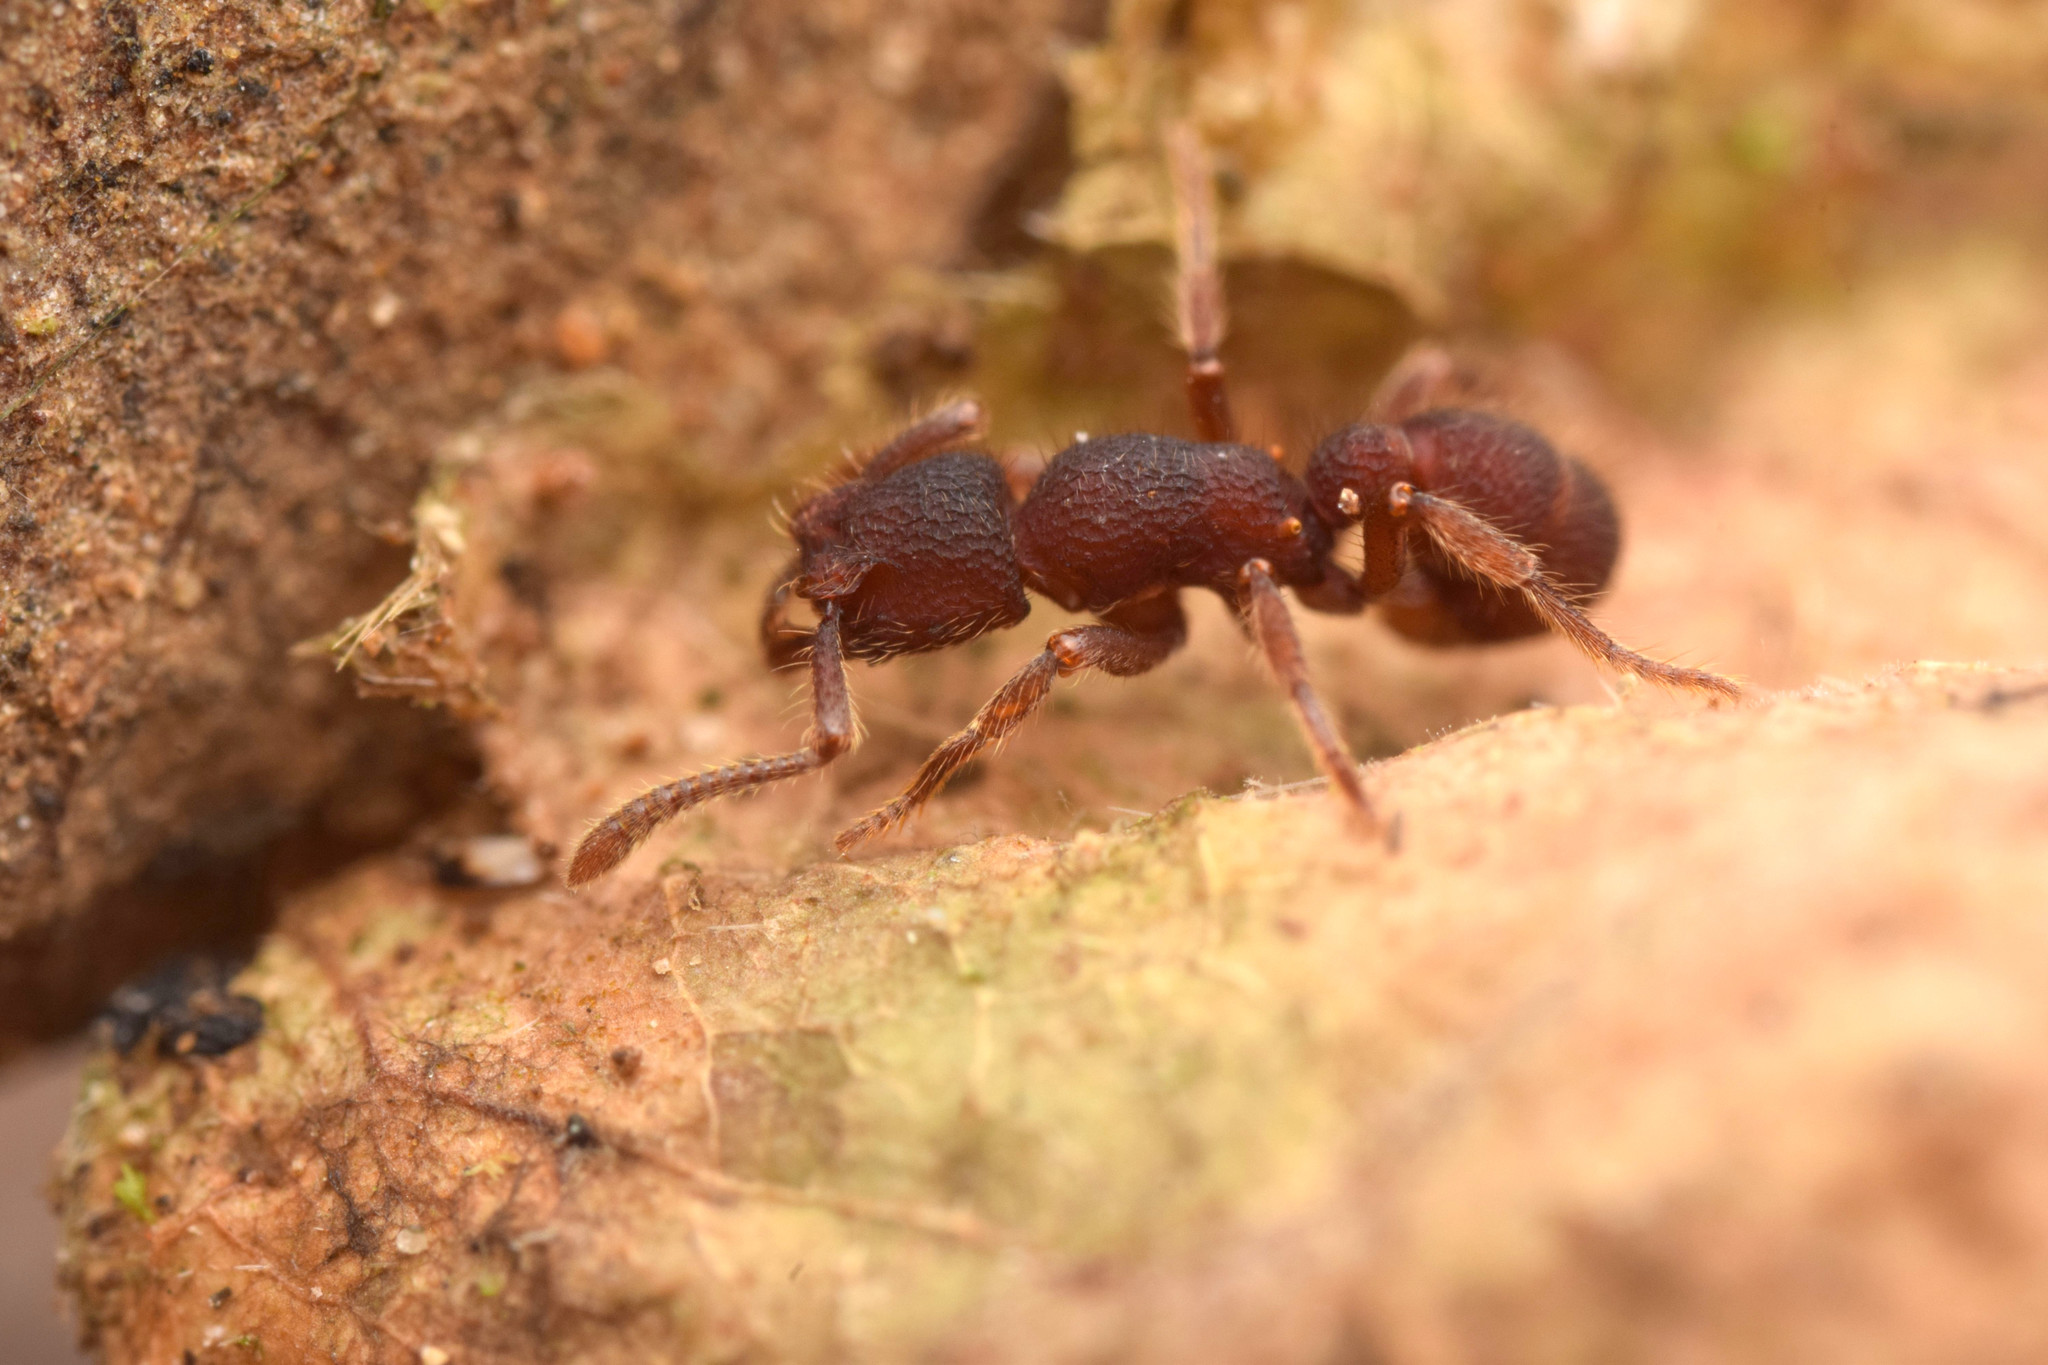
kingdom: Fungi
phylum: Ascomycota
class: Sordariomycetes
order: Hypocreales
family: Stachybotryaceae
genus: Alfaria
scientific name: Alfaria minuta
